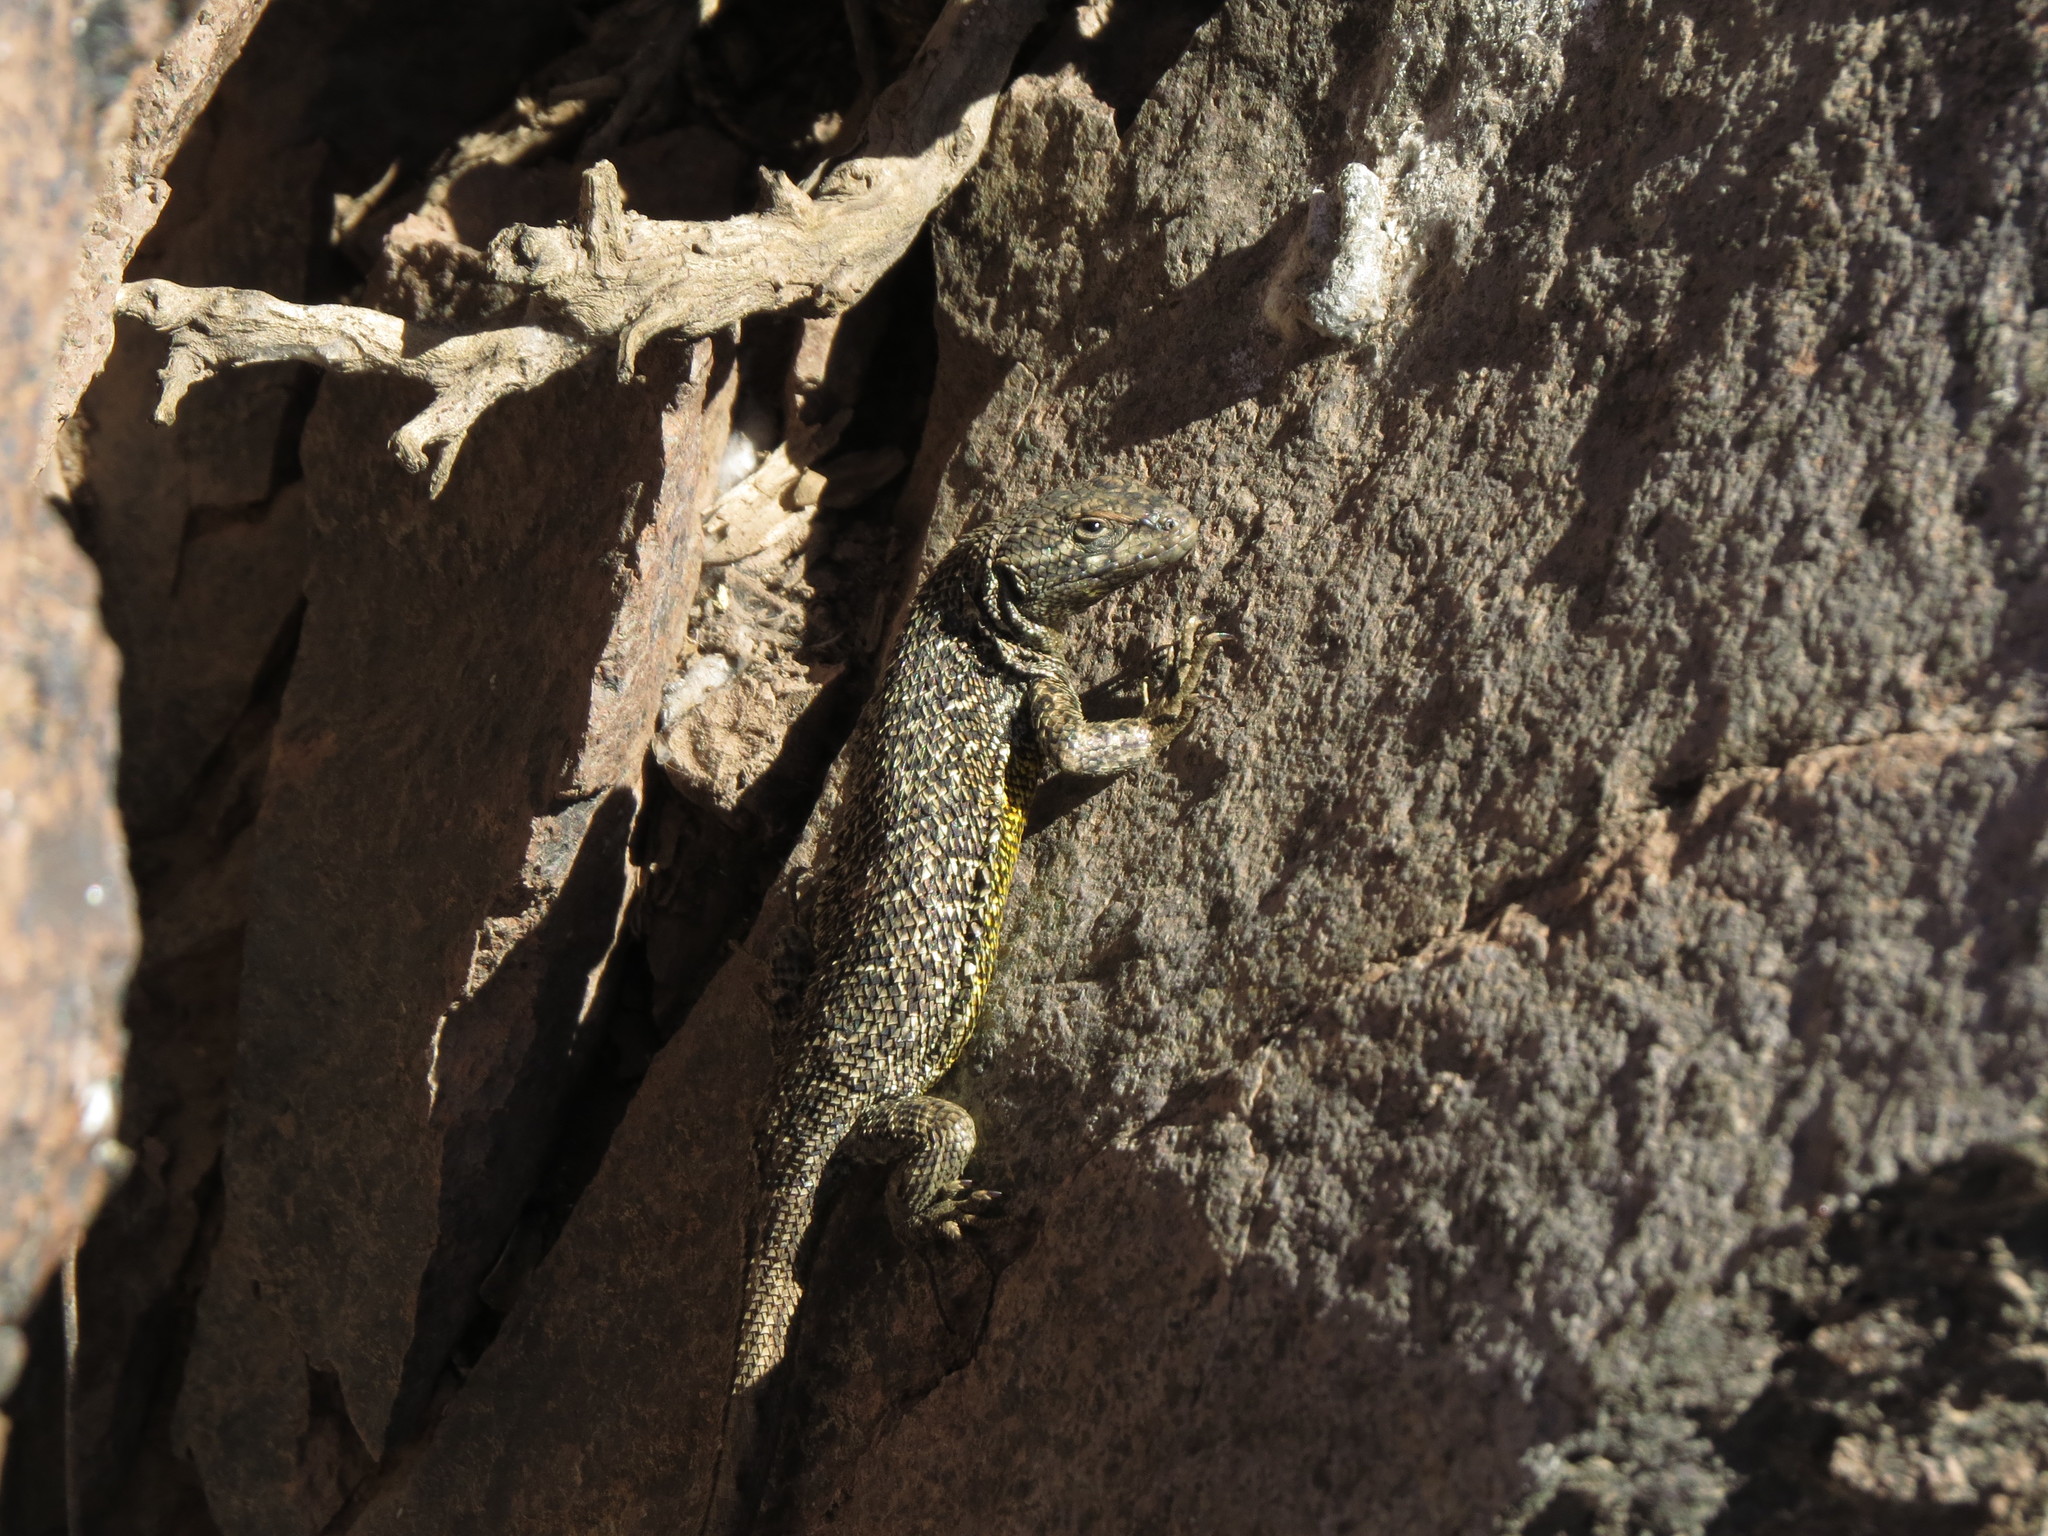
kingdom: Animalia
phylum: Chordata
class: Squamata
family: Liolaemidae
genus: Liolaemus
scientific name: Liolaemus nitidus
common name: Shining tree iguana
